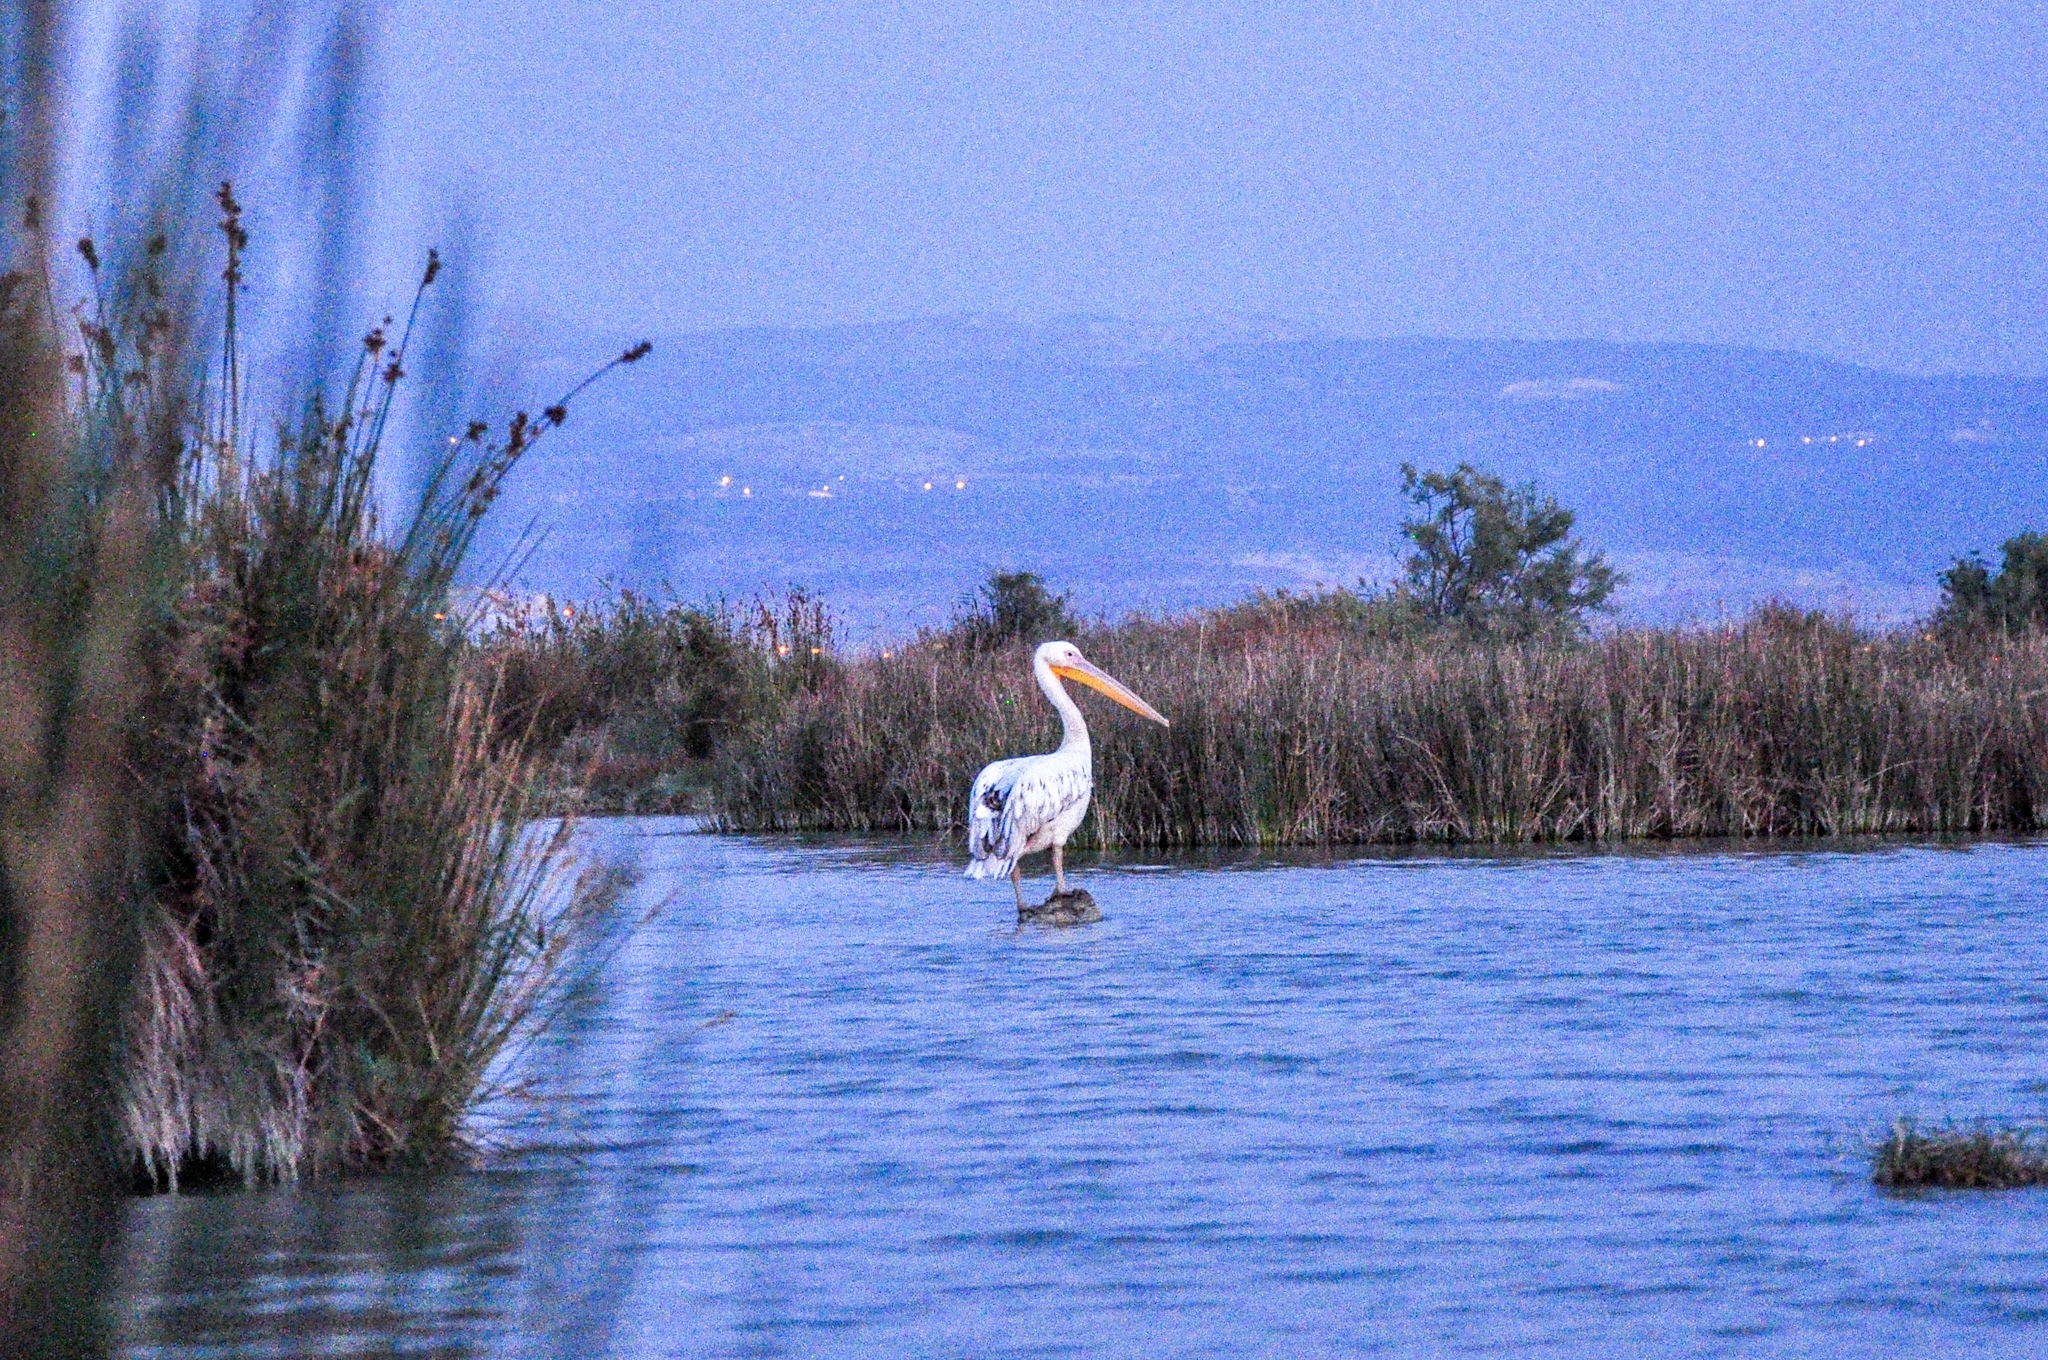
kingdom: Animalia
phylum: Chordata
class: Aves
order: Pelecaniformes
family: Pelecanidae
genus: Pelecanus
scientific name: Pelecanus onocrotalus
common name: Great white pelican
